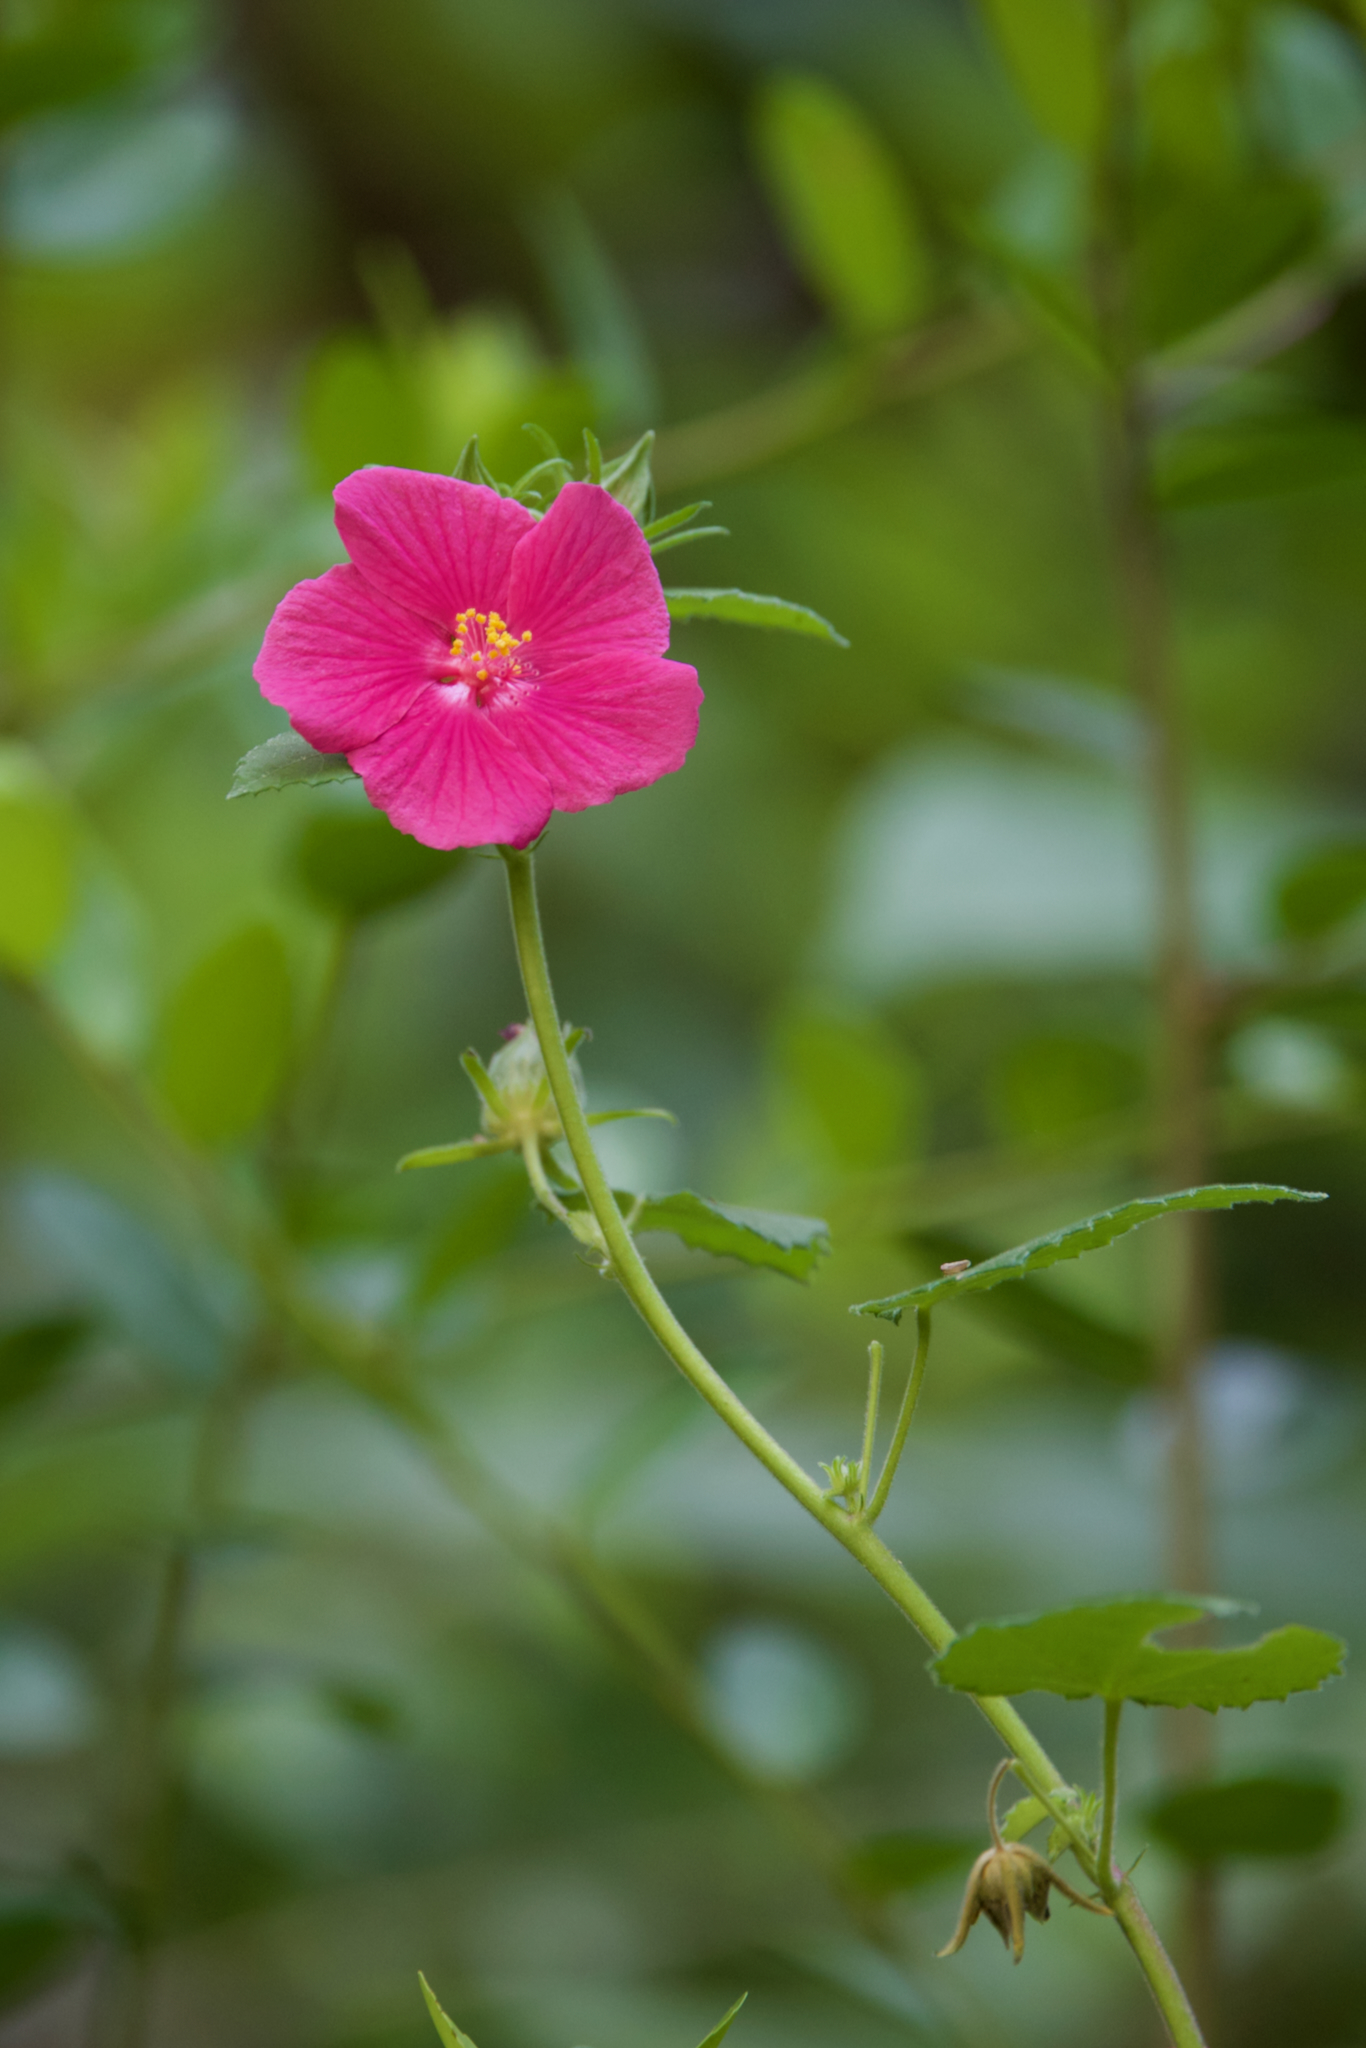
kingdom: Plantae
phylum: Tracheophyta
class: Magnoliopsida
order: Malvales
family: Malvaceae
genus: Pavonia
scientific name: Pavonia lasiopetala
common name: Texas swamp-mallow
